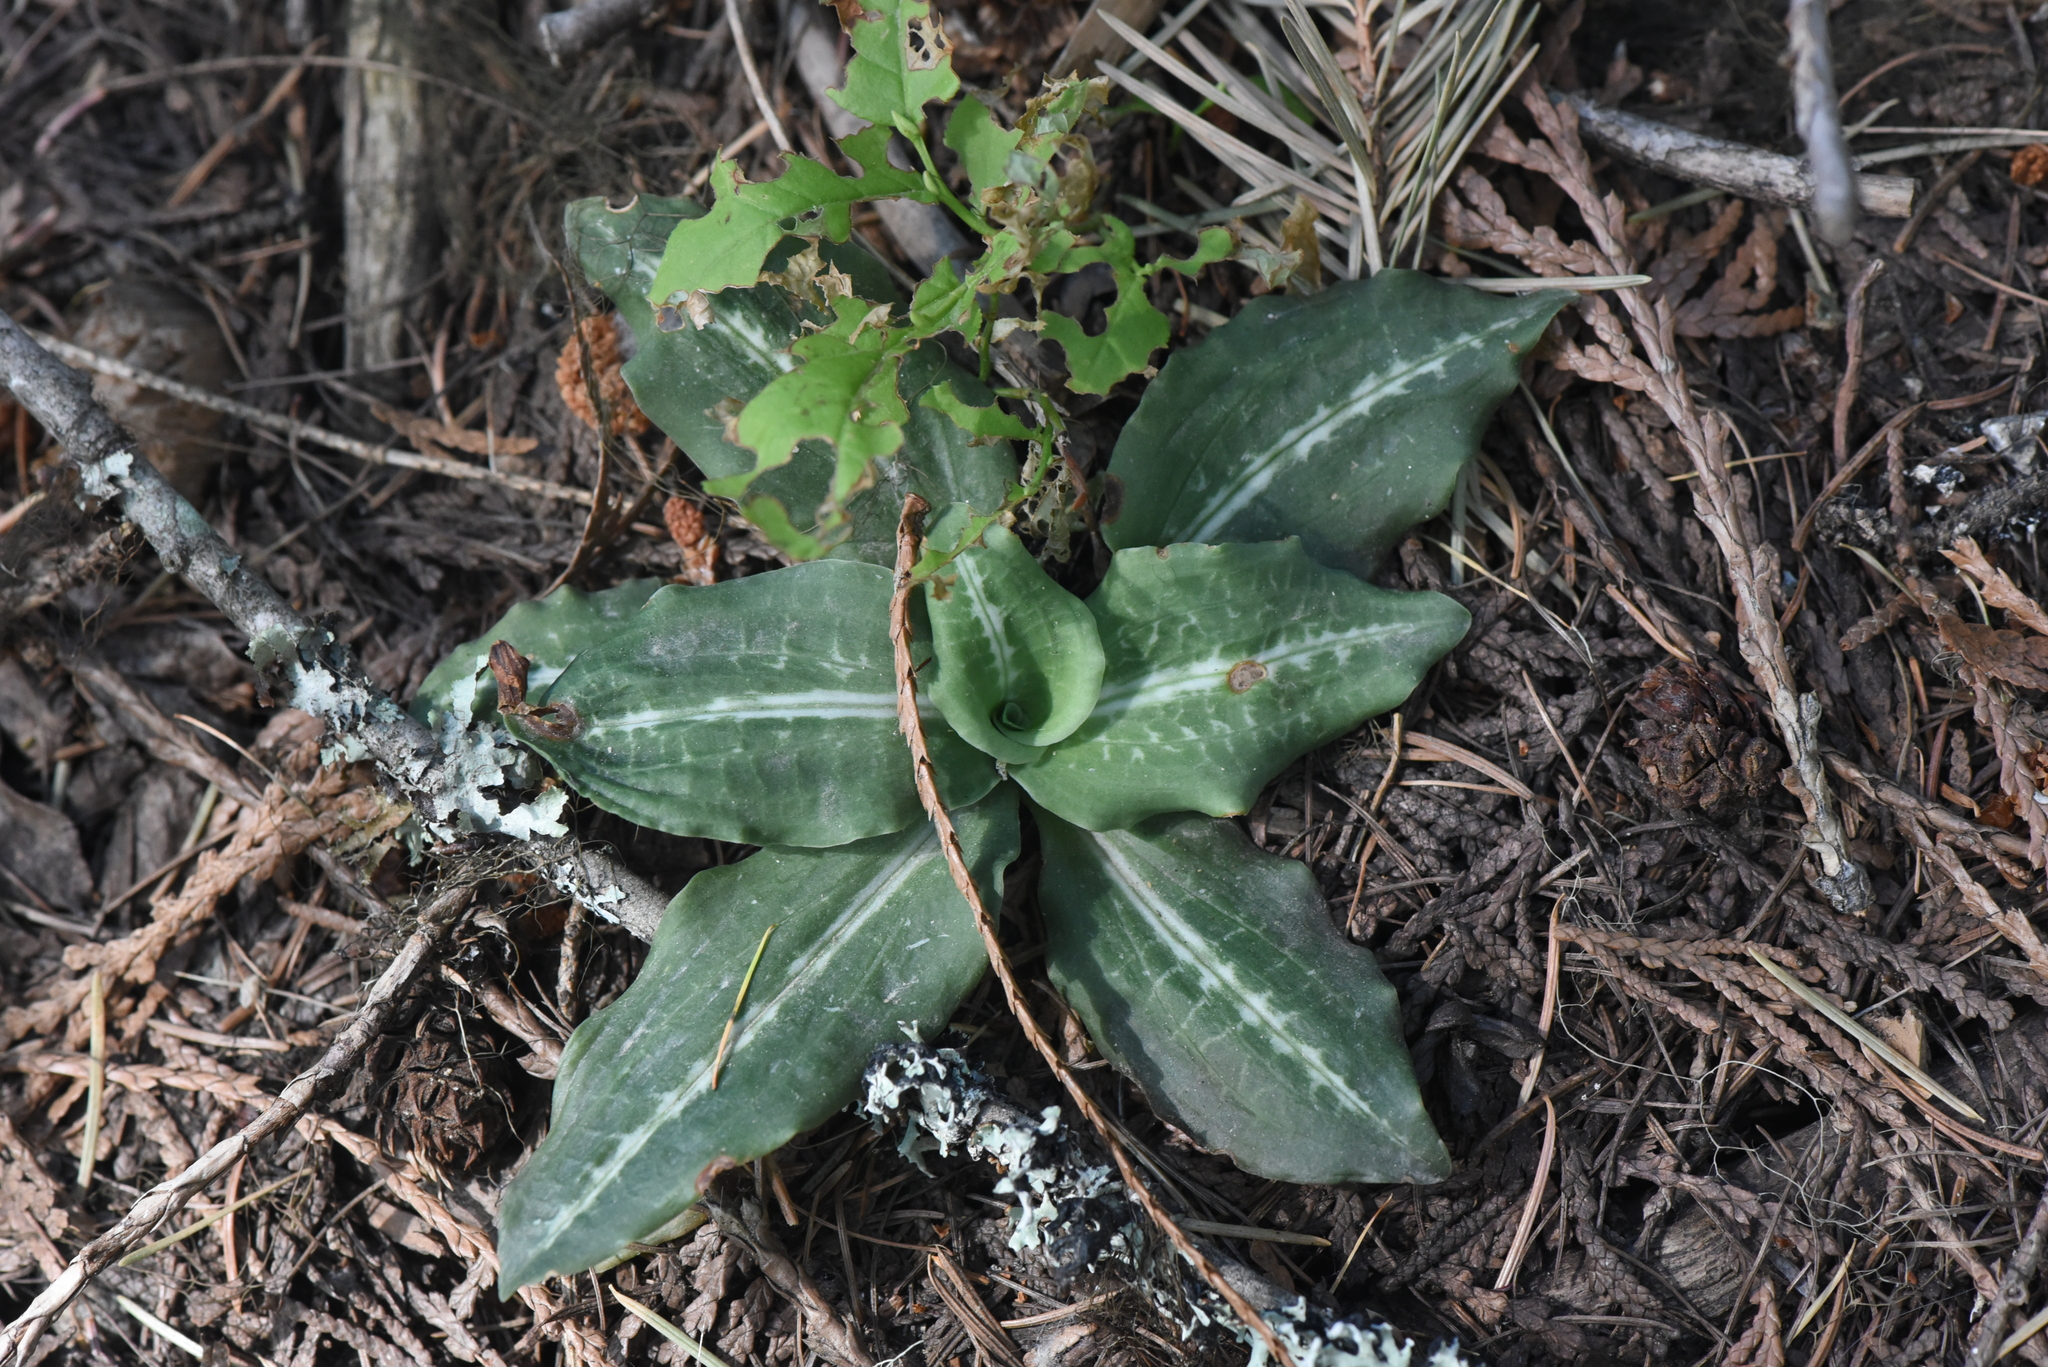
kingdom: Plantae
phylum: Tracheophyta
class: Liliopsida
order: Asparagales
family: Orchidaceae
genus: Goodyera
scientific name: Goodyera oblongifolia
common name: Giant rattlesnake-plantain
